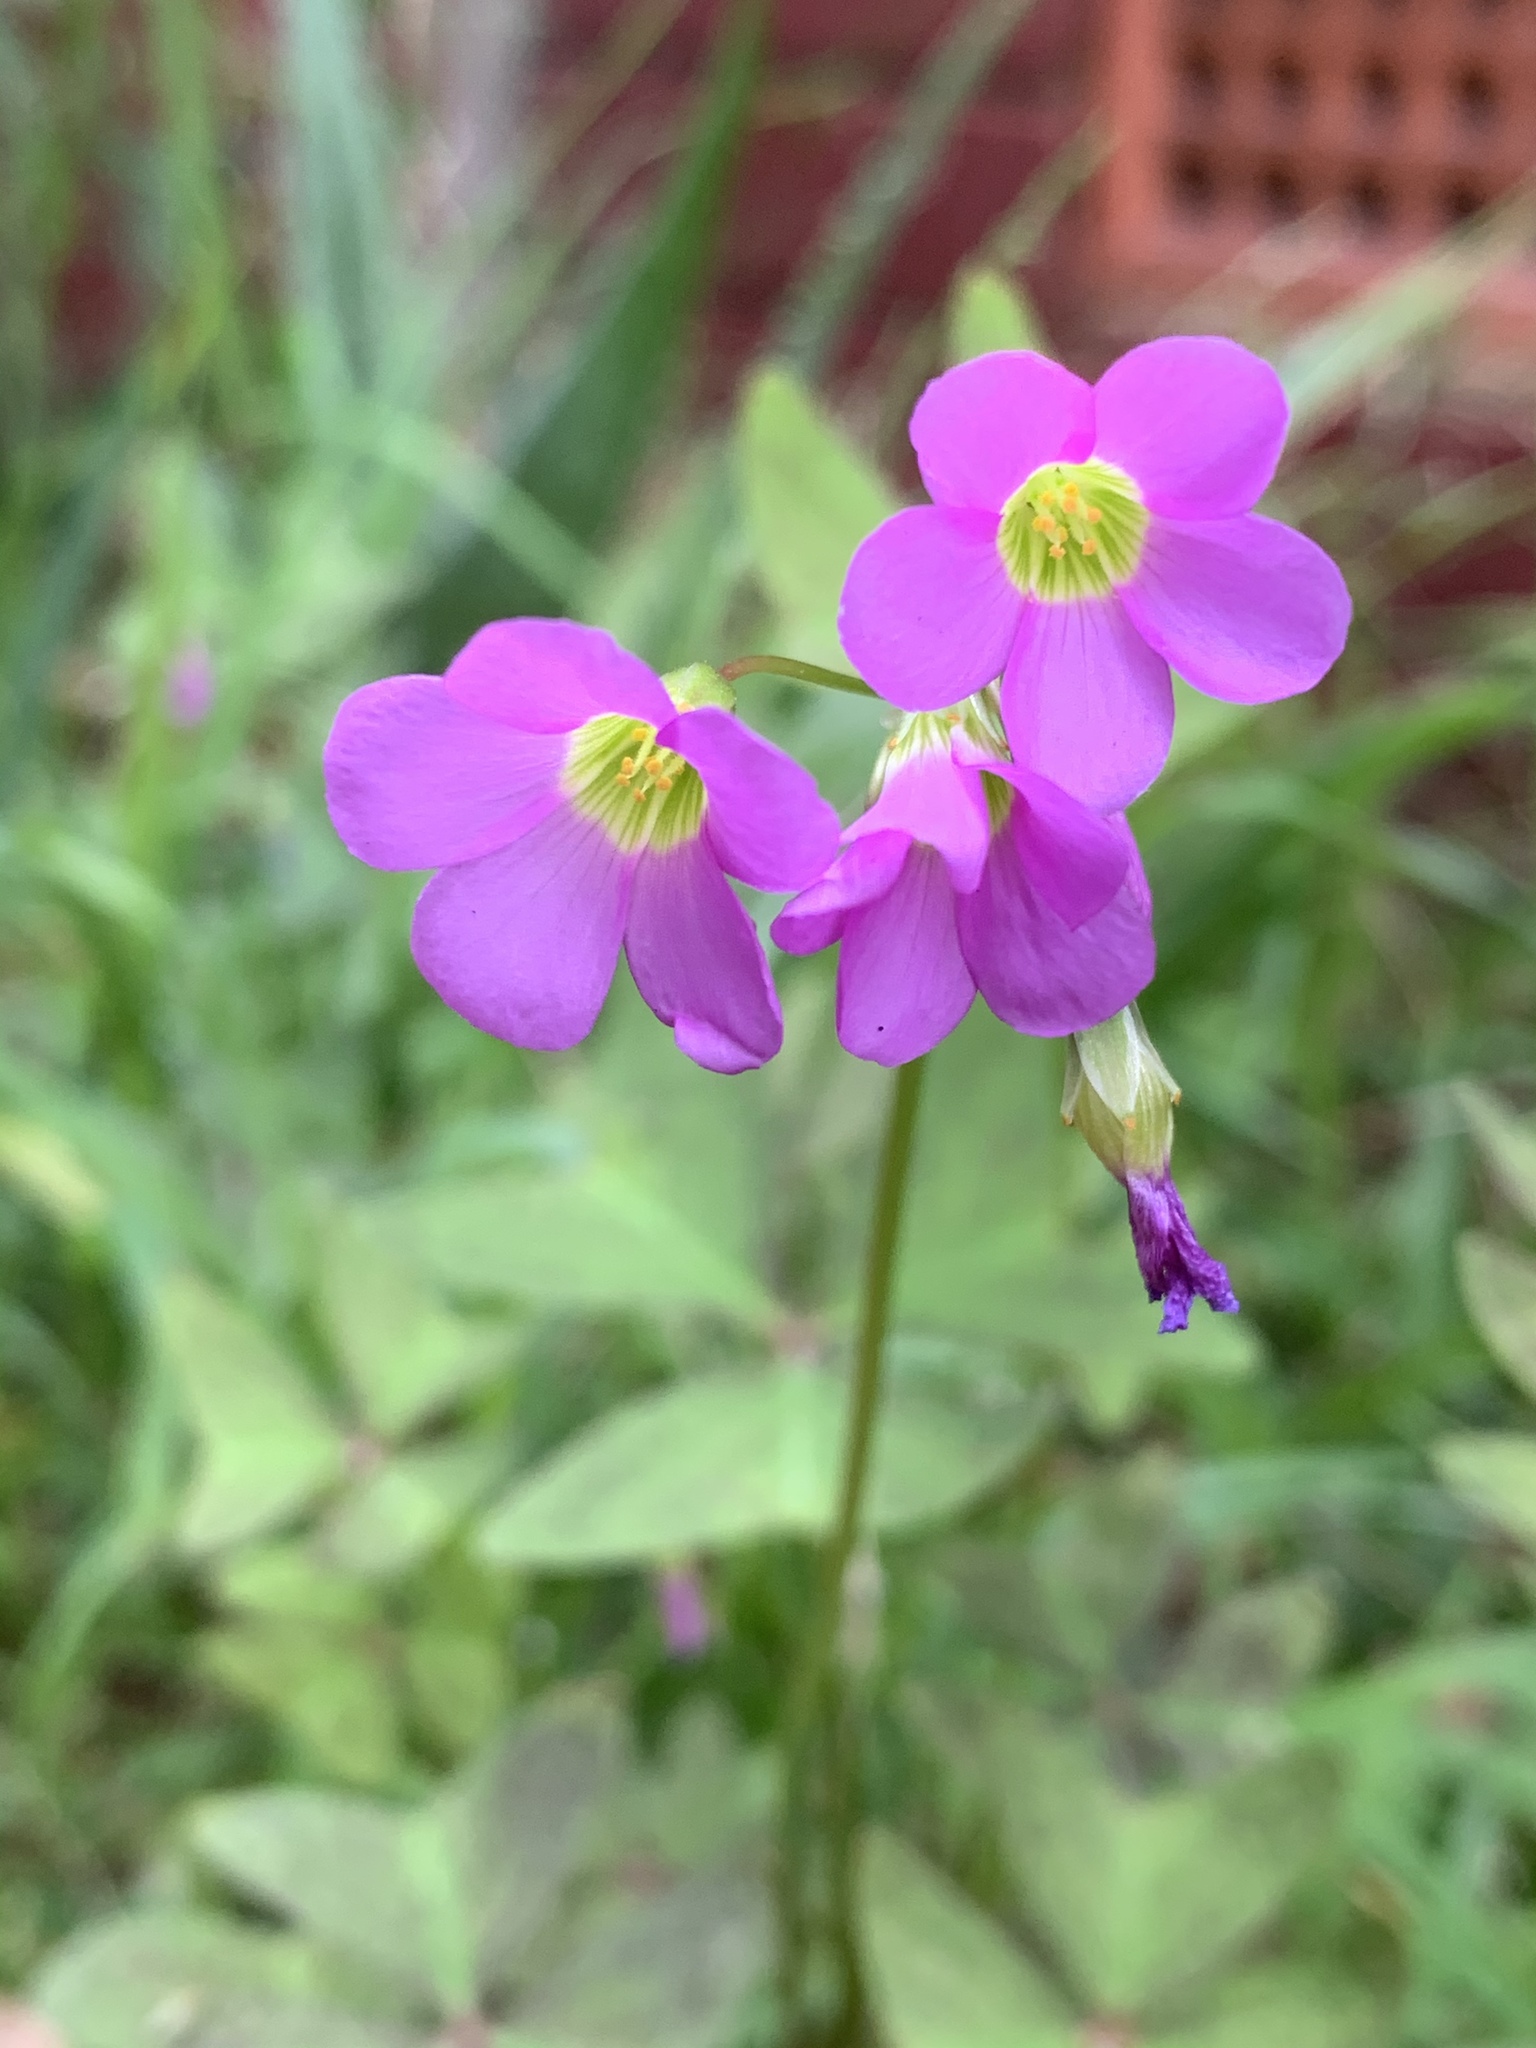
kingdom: Plantae
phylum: Tracheophyta
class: Magnoliopsida
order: Oxalidales
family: Oxalidaceae
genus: Oxalis
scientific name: Oxalis latifolia
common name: Garden pink-sorrel
